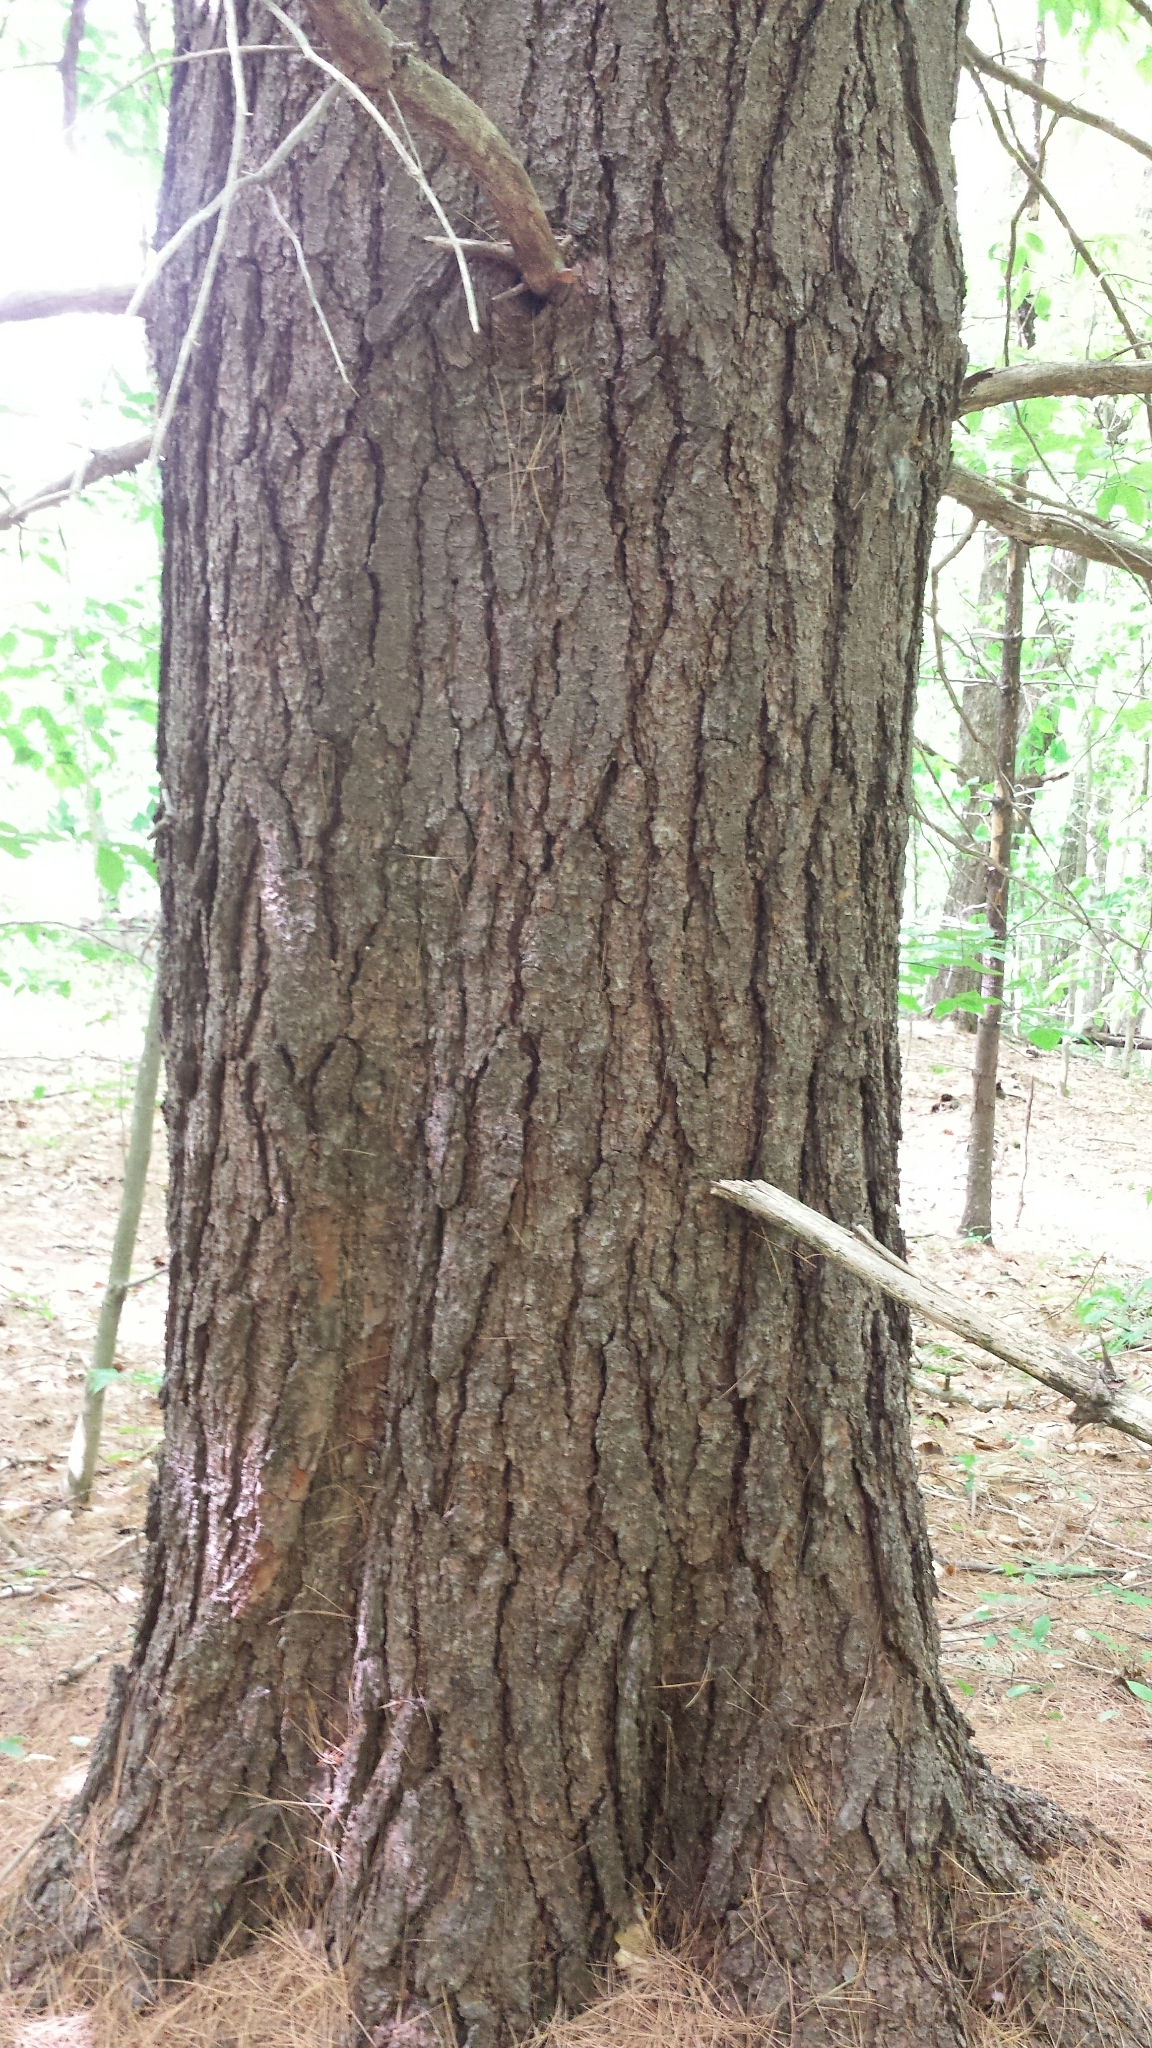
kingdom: Plantae
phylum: Tracheophyta
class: Pinopsida
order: Pinales
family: Pinaceae
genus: Pinus
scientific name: Pinus strobus
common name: Weymouth pine
